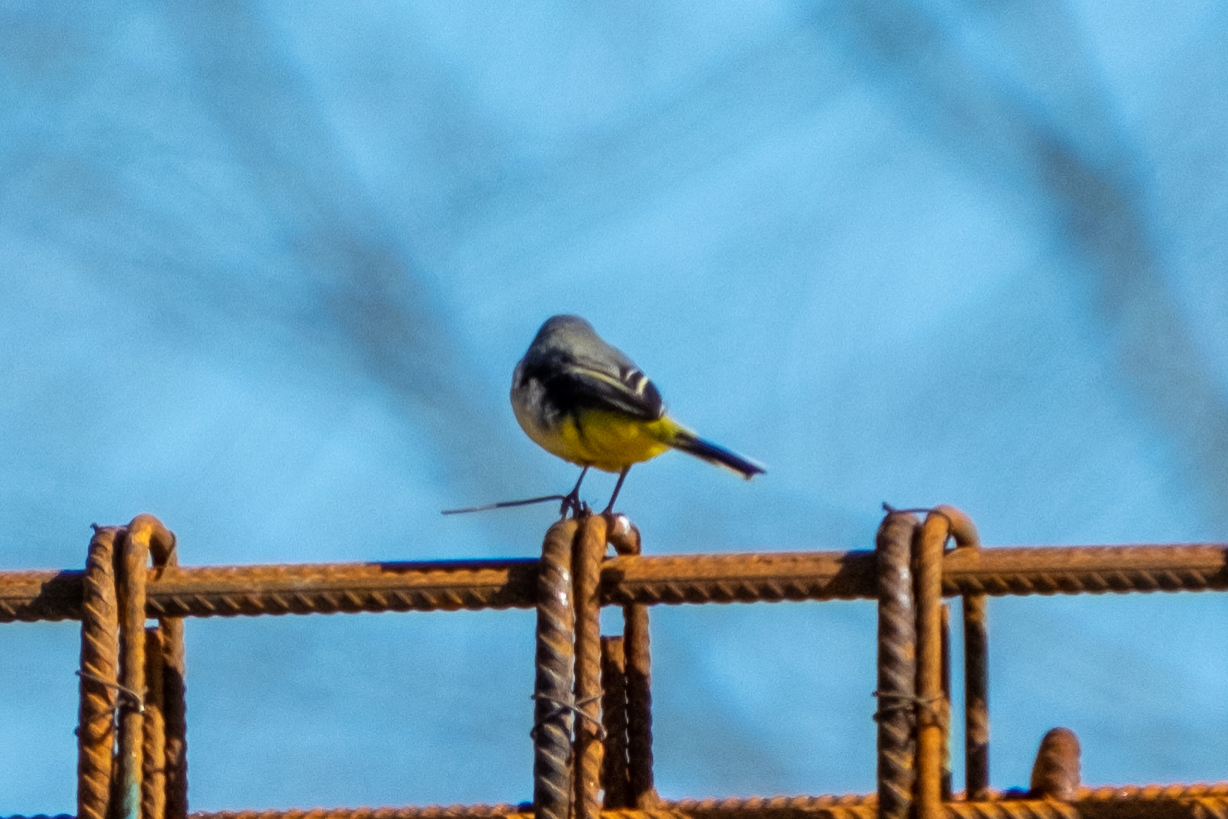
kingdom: Animalia
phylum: Chordata
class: Aves
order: Passeriformes
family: Motacillidae
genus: Motacilla
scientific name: Motacilla cinerea
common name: Grey wagtail
